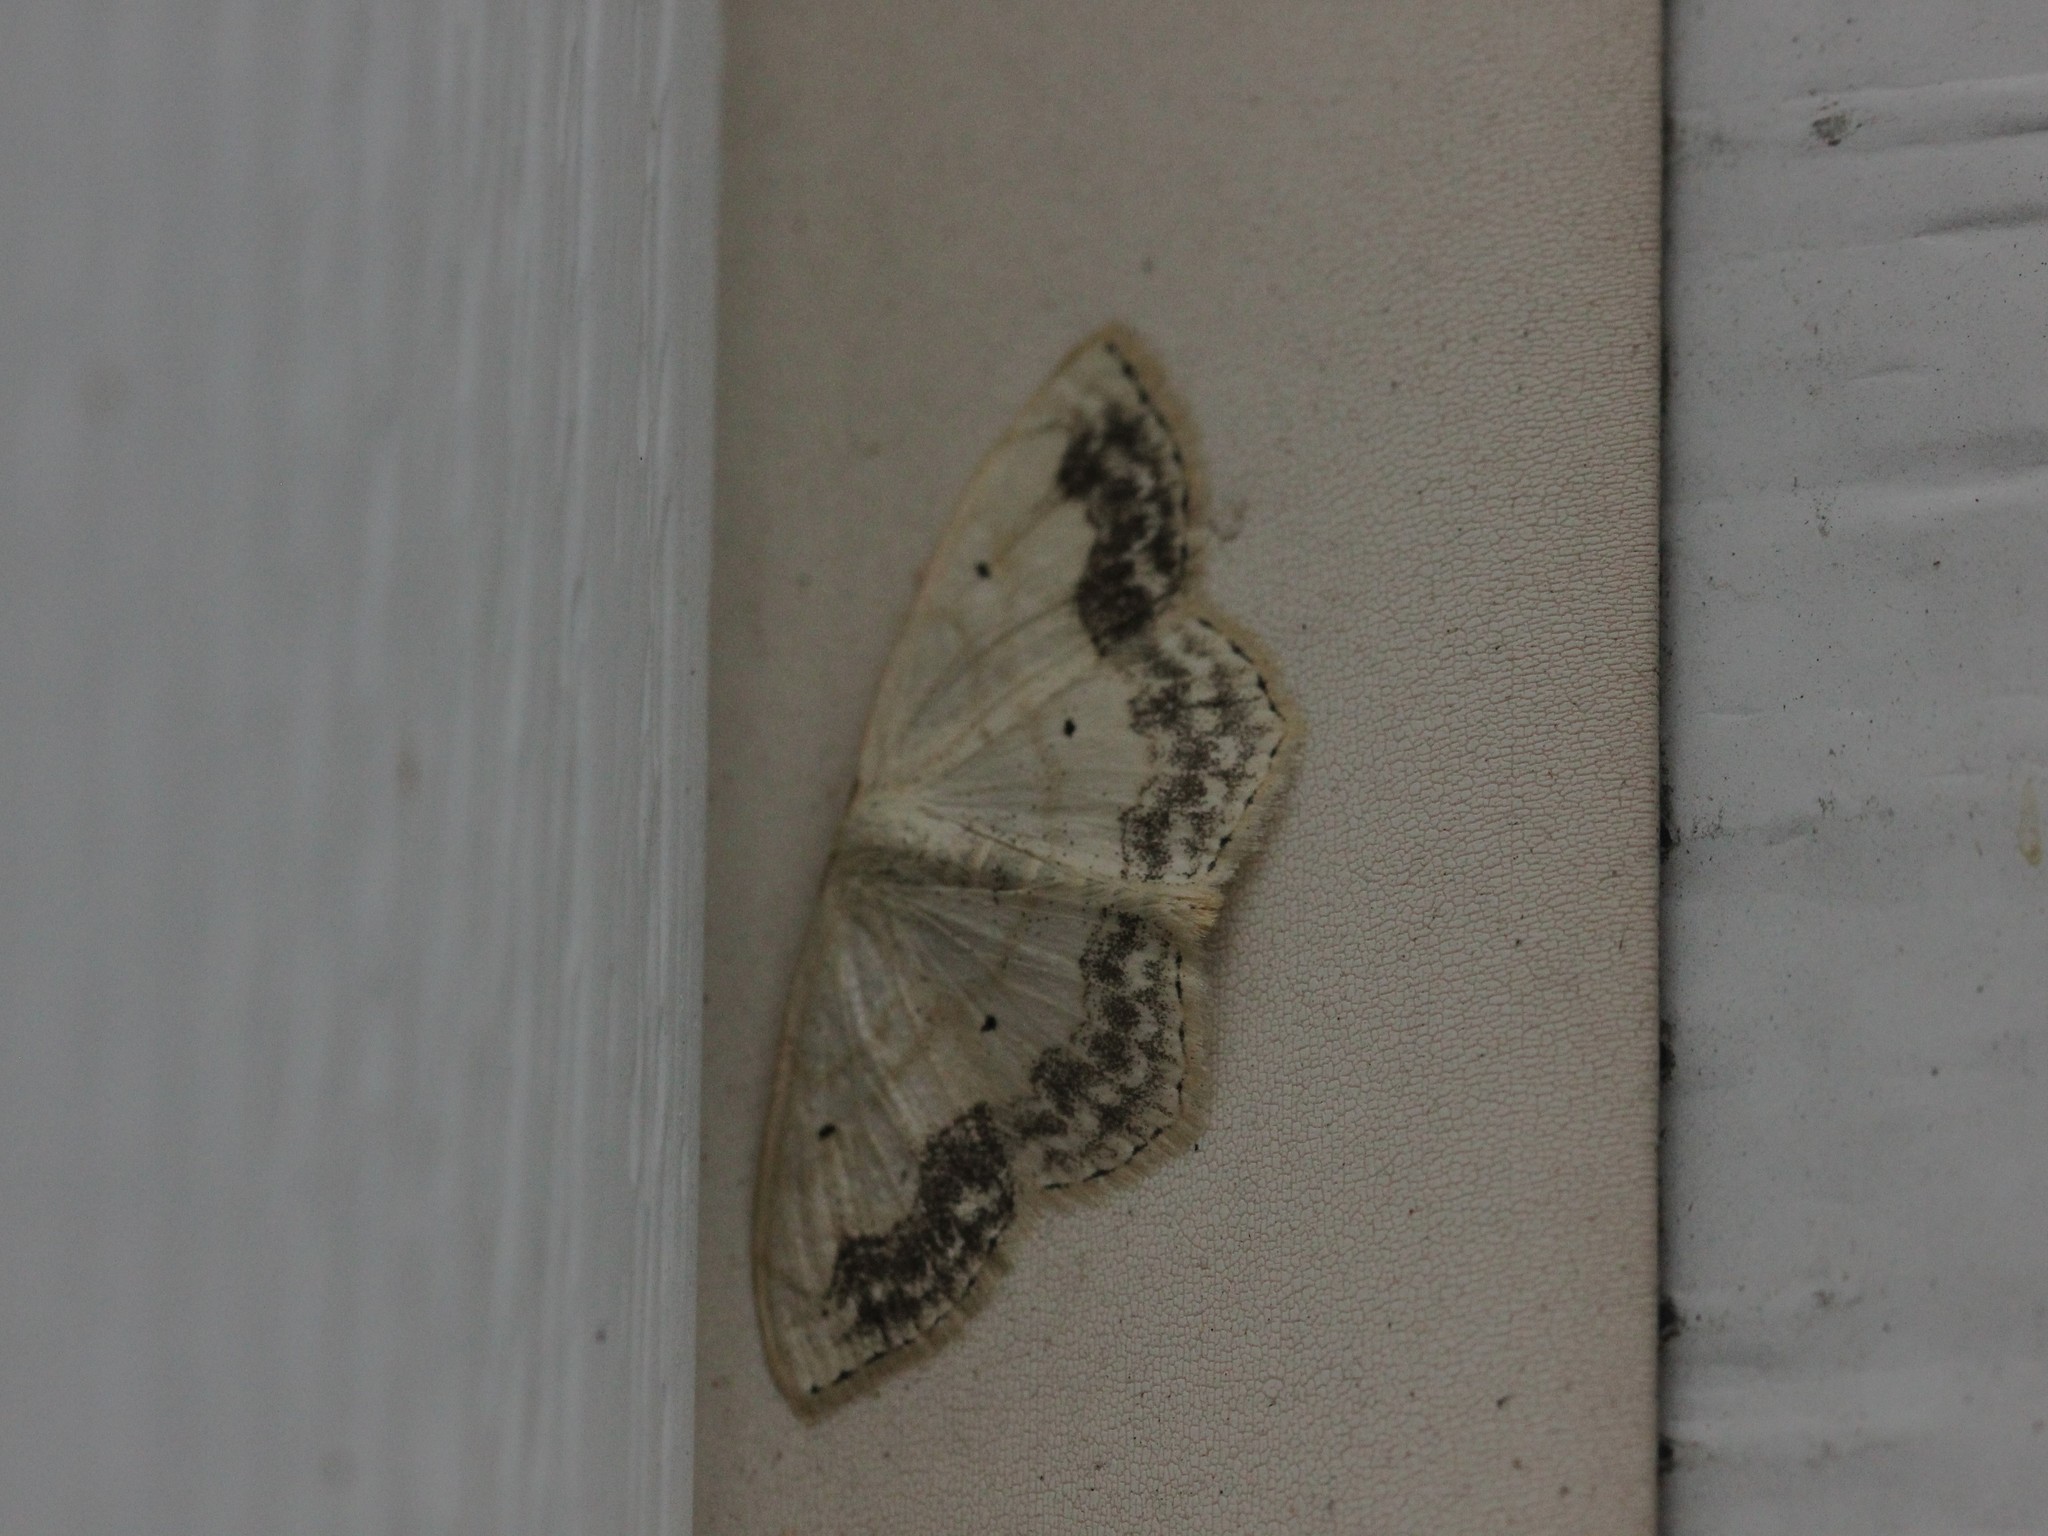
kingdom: Animalia
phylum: Arthropoda
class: Insecta
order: Lepidoptera
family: Geometridae
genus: Scopula
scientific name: Scopula limboundata
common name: Large lace border
